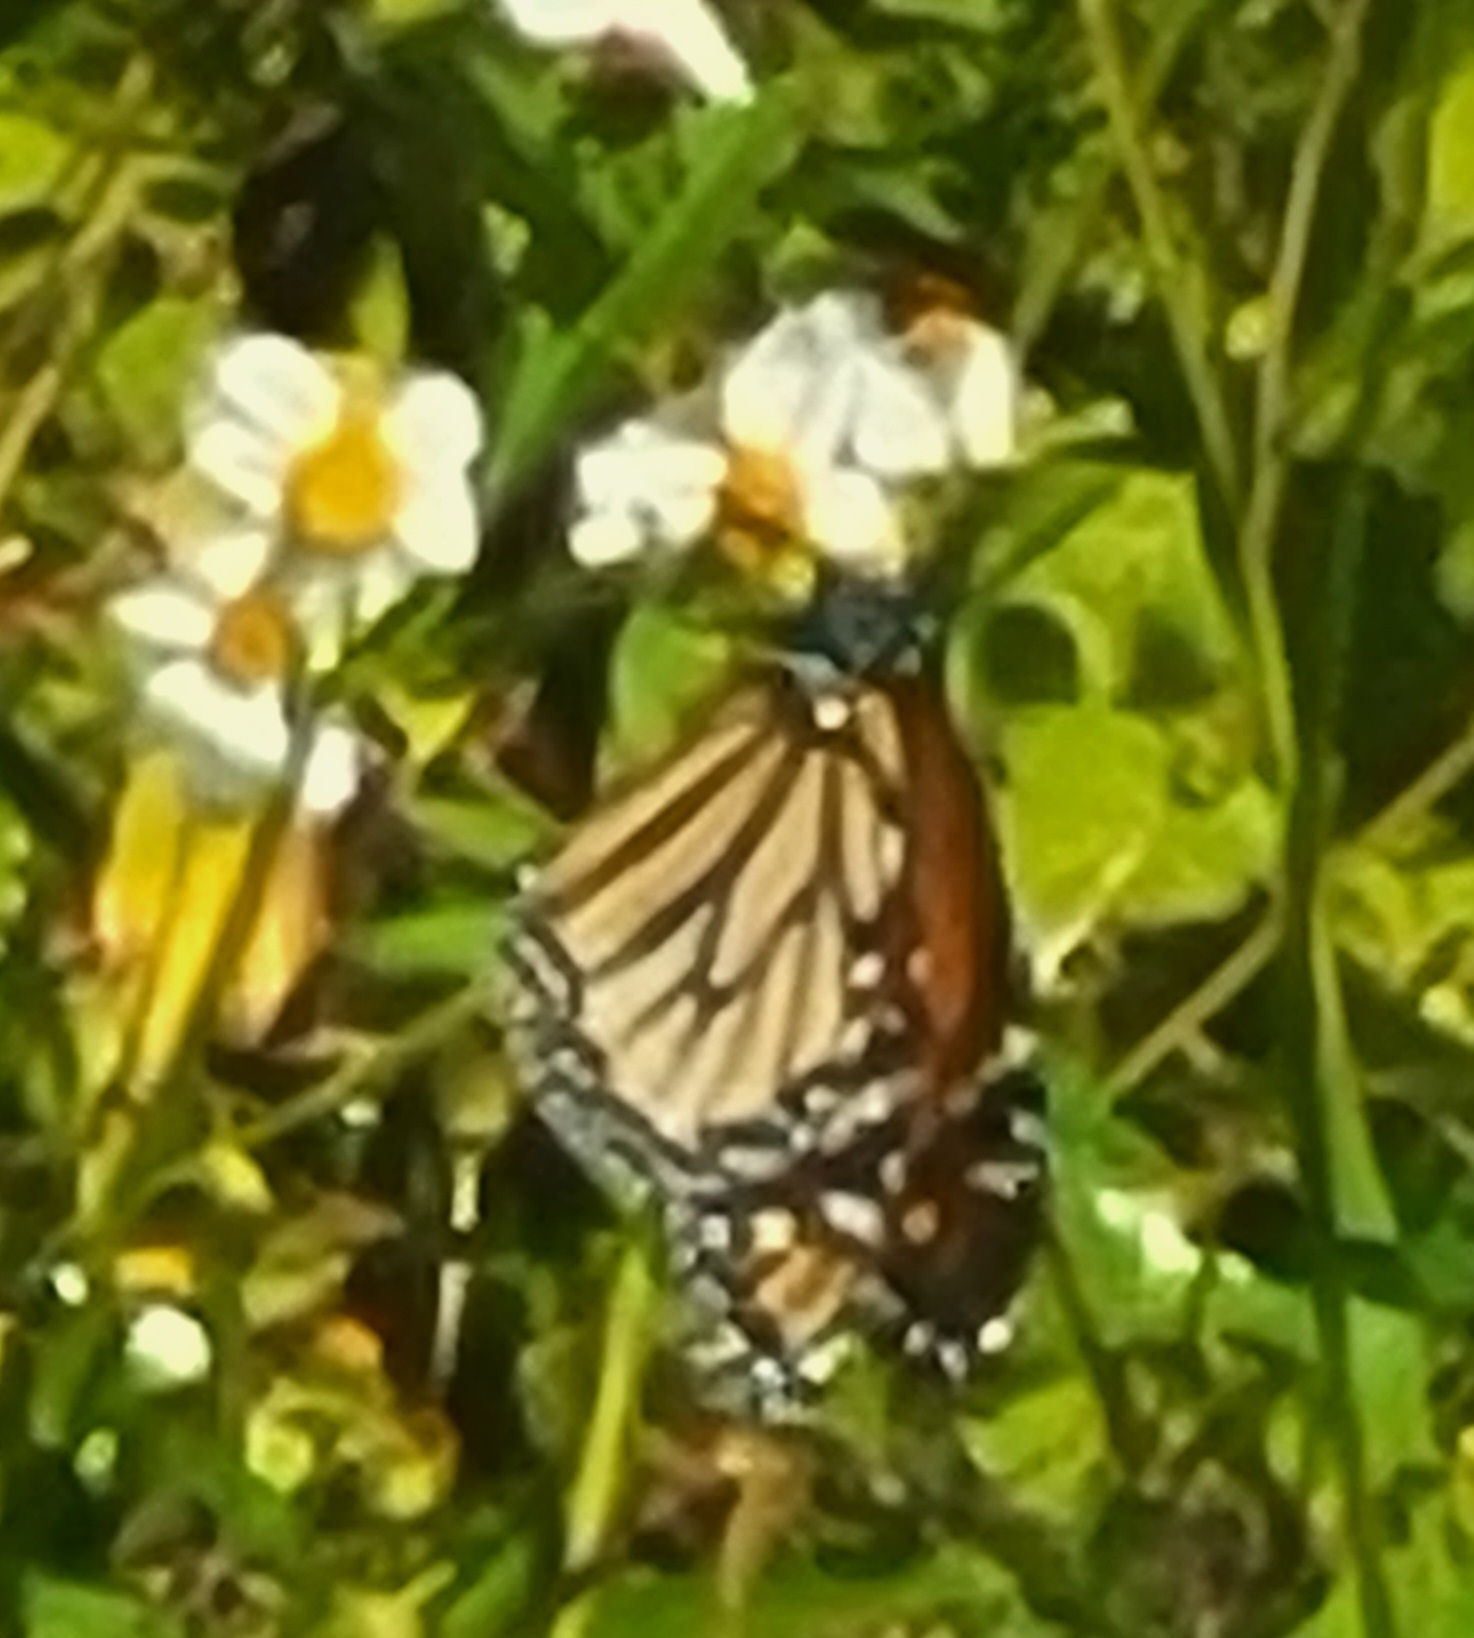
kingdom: Animalia
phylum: Arthropoda
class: Insecta
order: Lepidoptera
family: Nymphalidae
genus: Danaus
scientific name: Danaus plexippus
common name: Monarch
